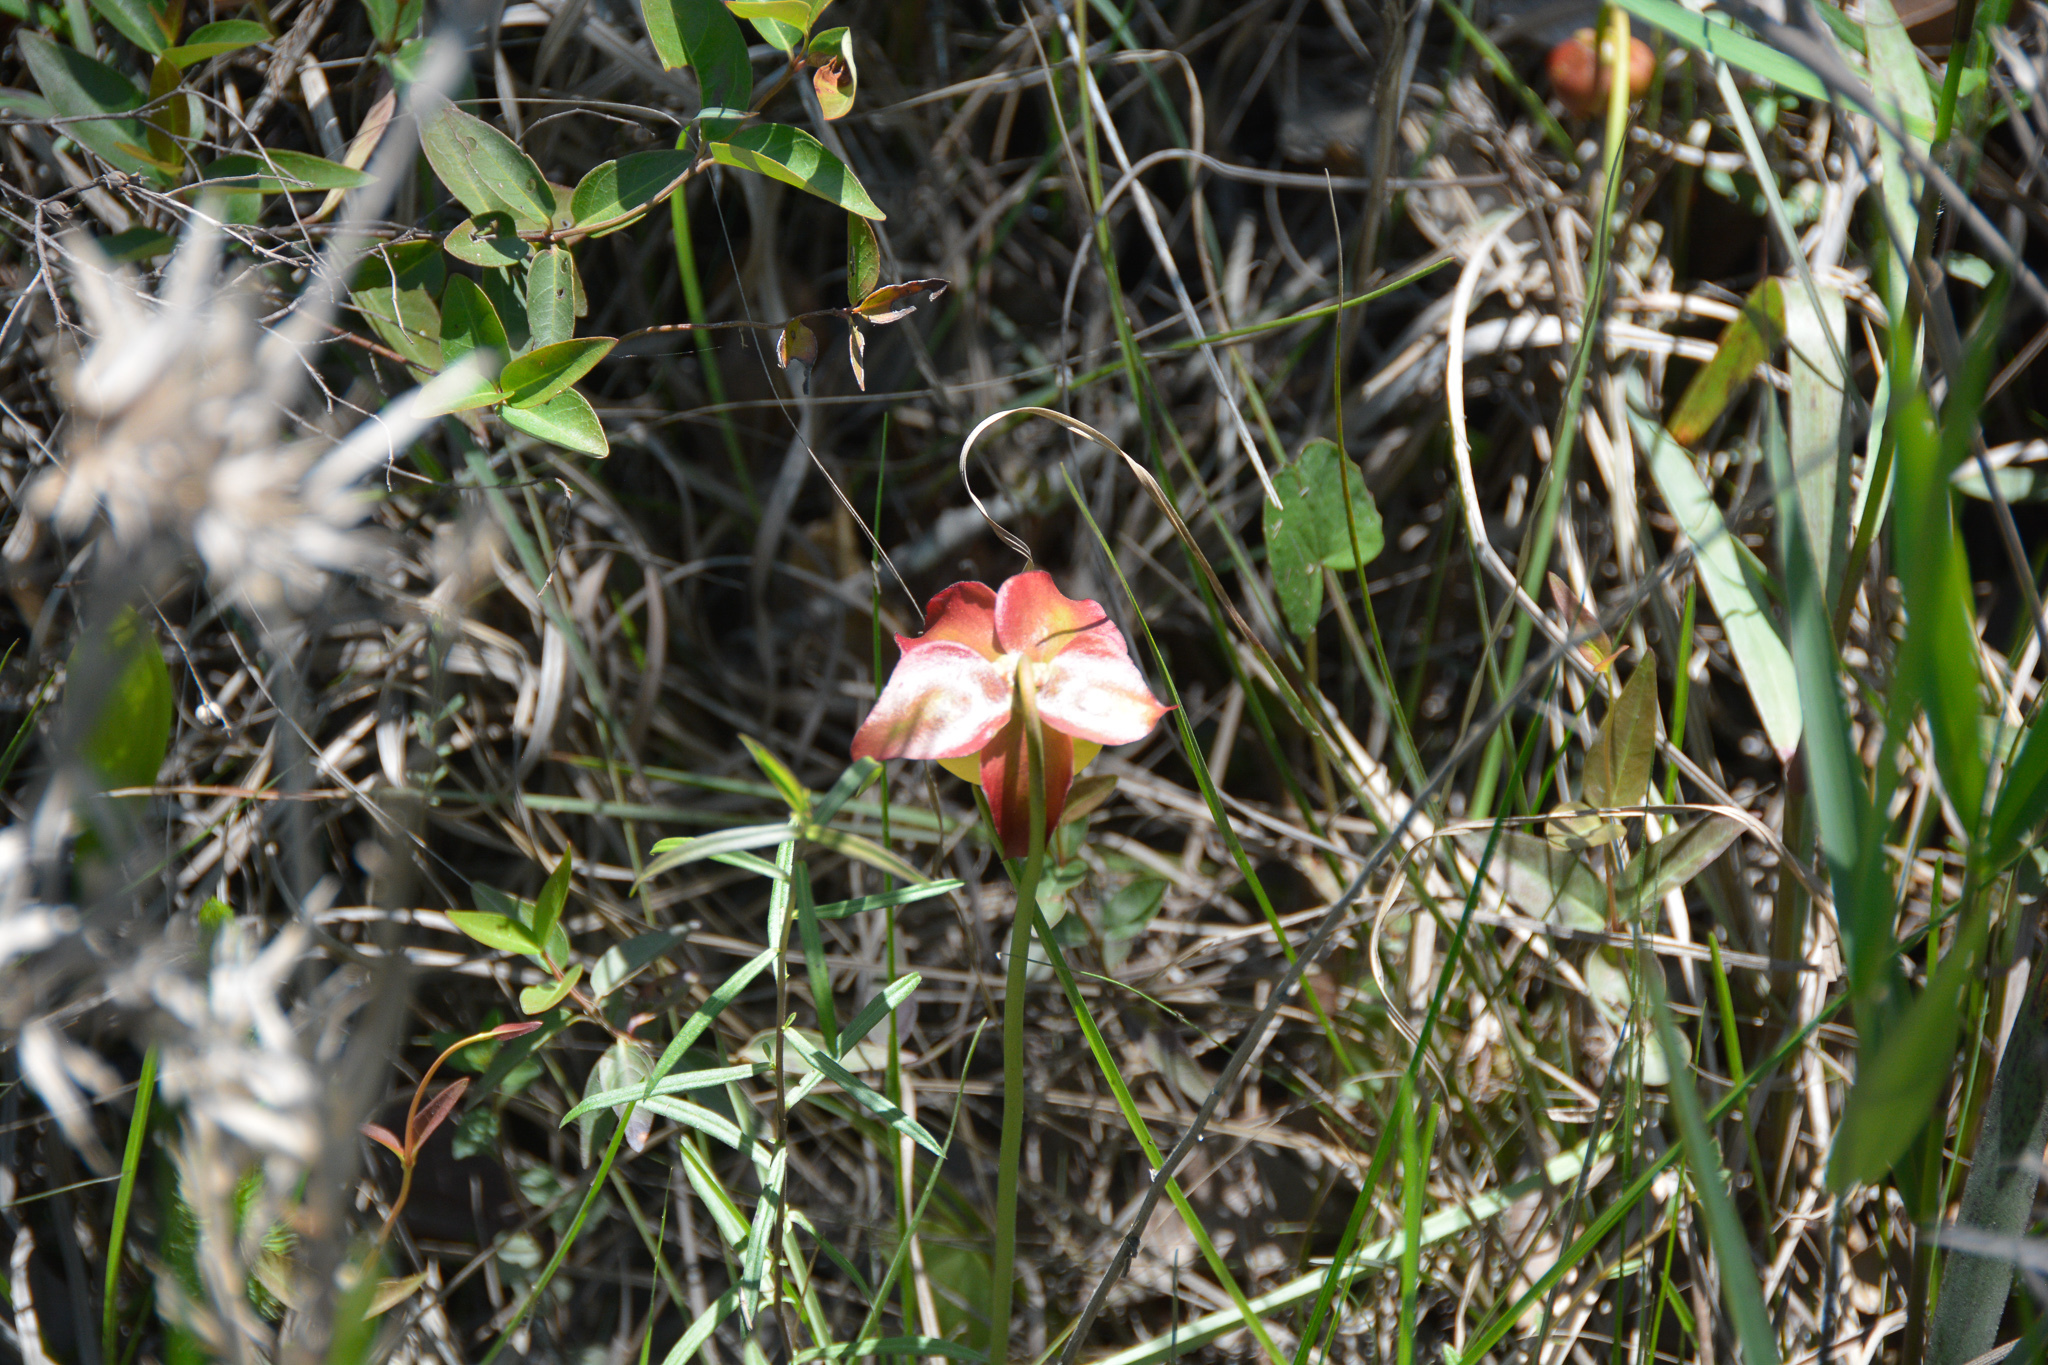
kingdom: Plantae
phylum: Tracheophyta
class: Magnoliopsida
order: Ericales
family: Sarraceniaceae
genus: Sarracenia
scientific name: Sarracenia alata
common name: Yellow trumpets
